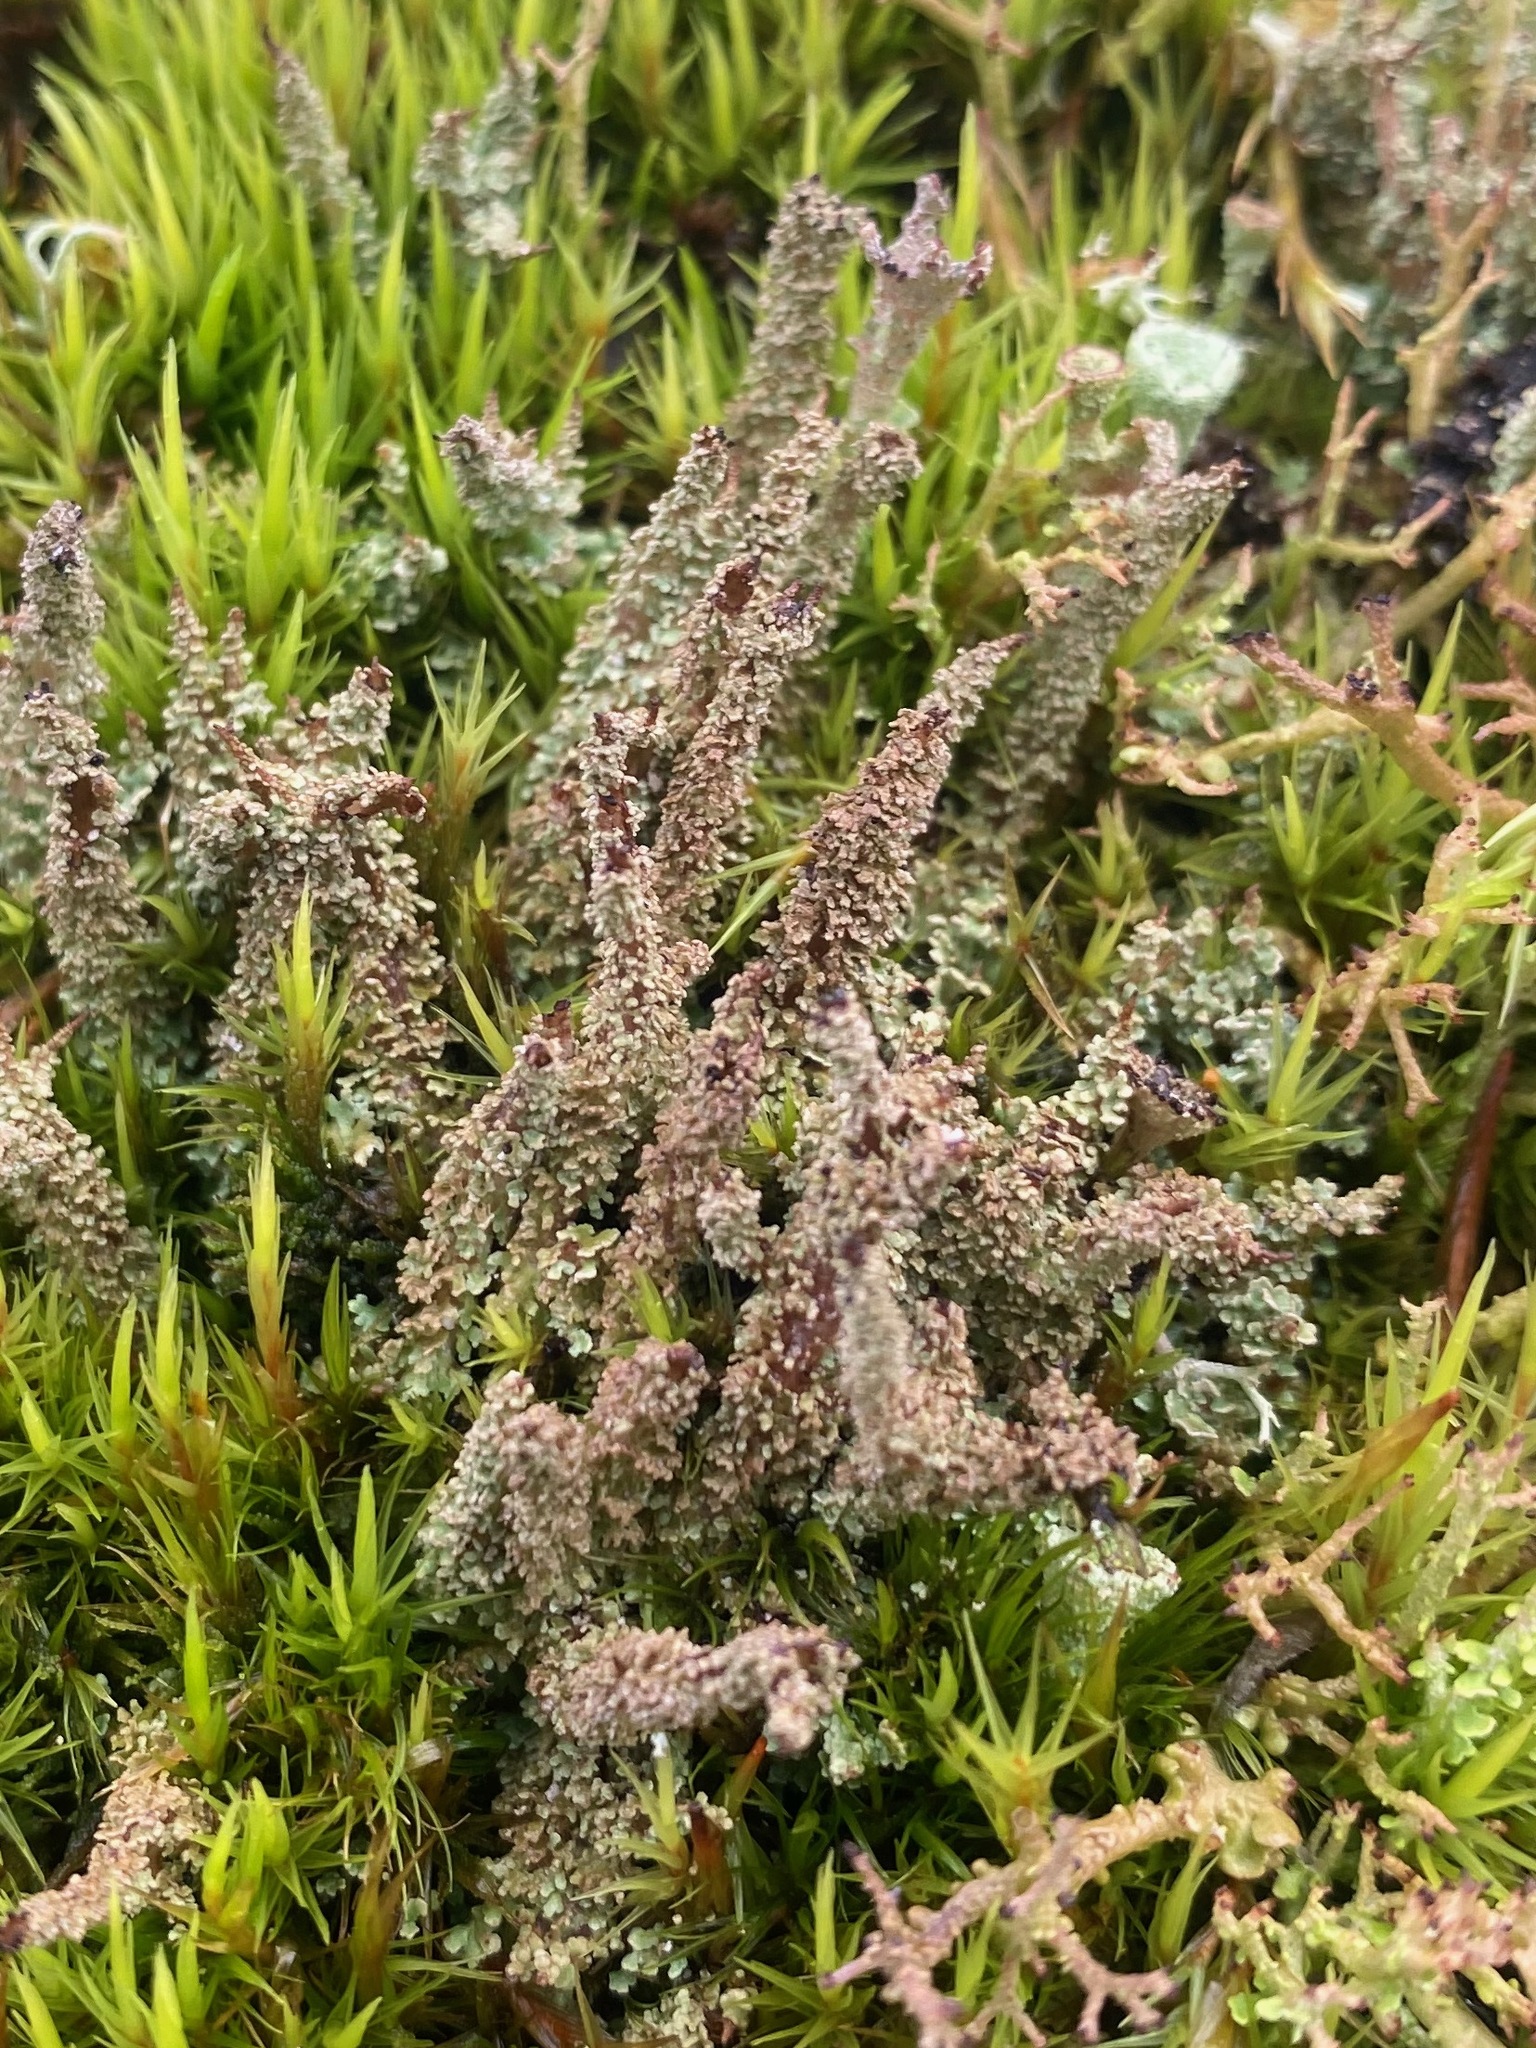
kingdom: Fungi
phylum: Ascomycota
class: Lecanoromycetes
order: Lecanorales
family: Cladoniaceae
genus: Cladonia
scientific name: Cladonia squamosa
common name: Dragon horn
